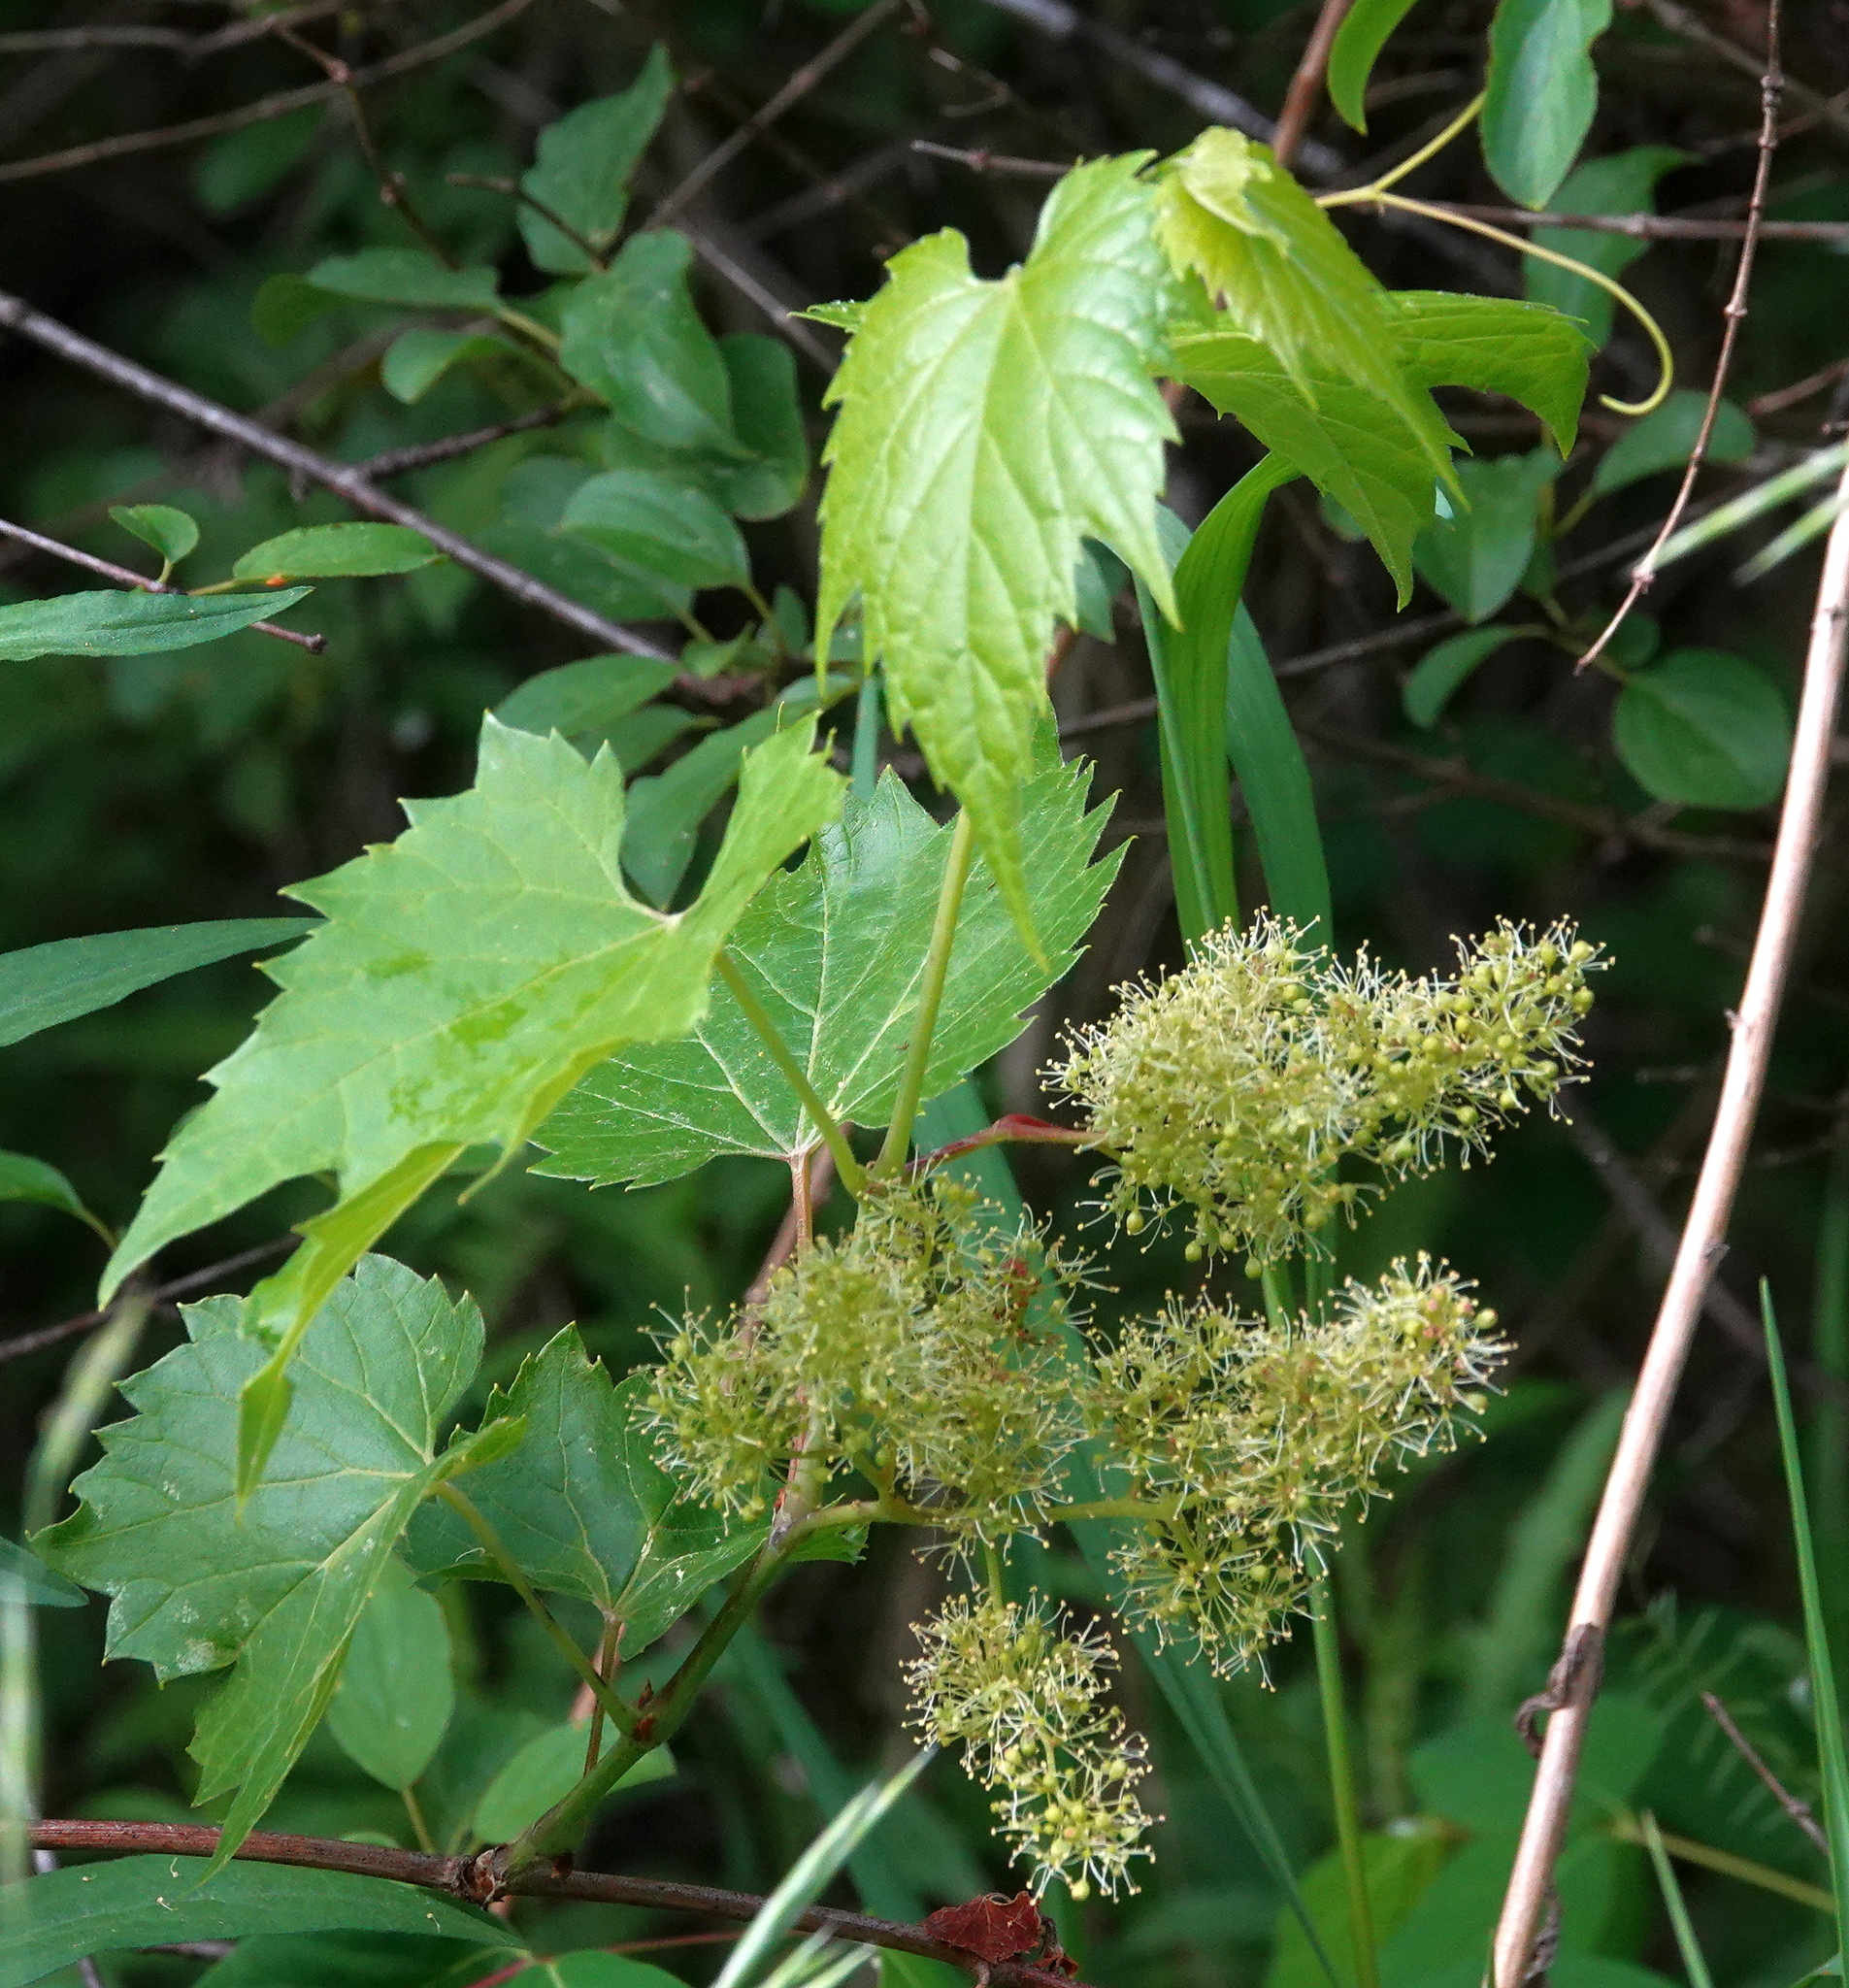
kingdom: Plantae
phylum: Tracheophyta
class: Magnoliopsida
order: Vitales
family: Vitaceae
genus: Vitis
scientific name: Vitis riparia
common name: Frost grape
